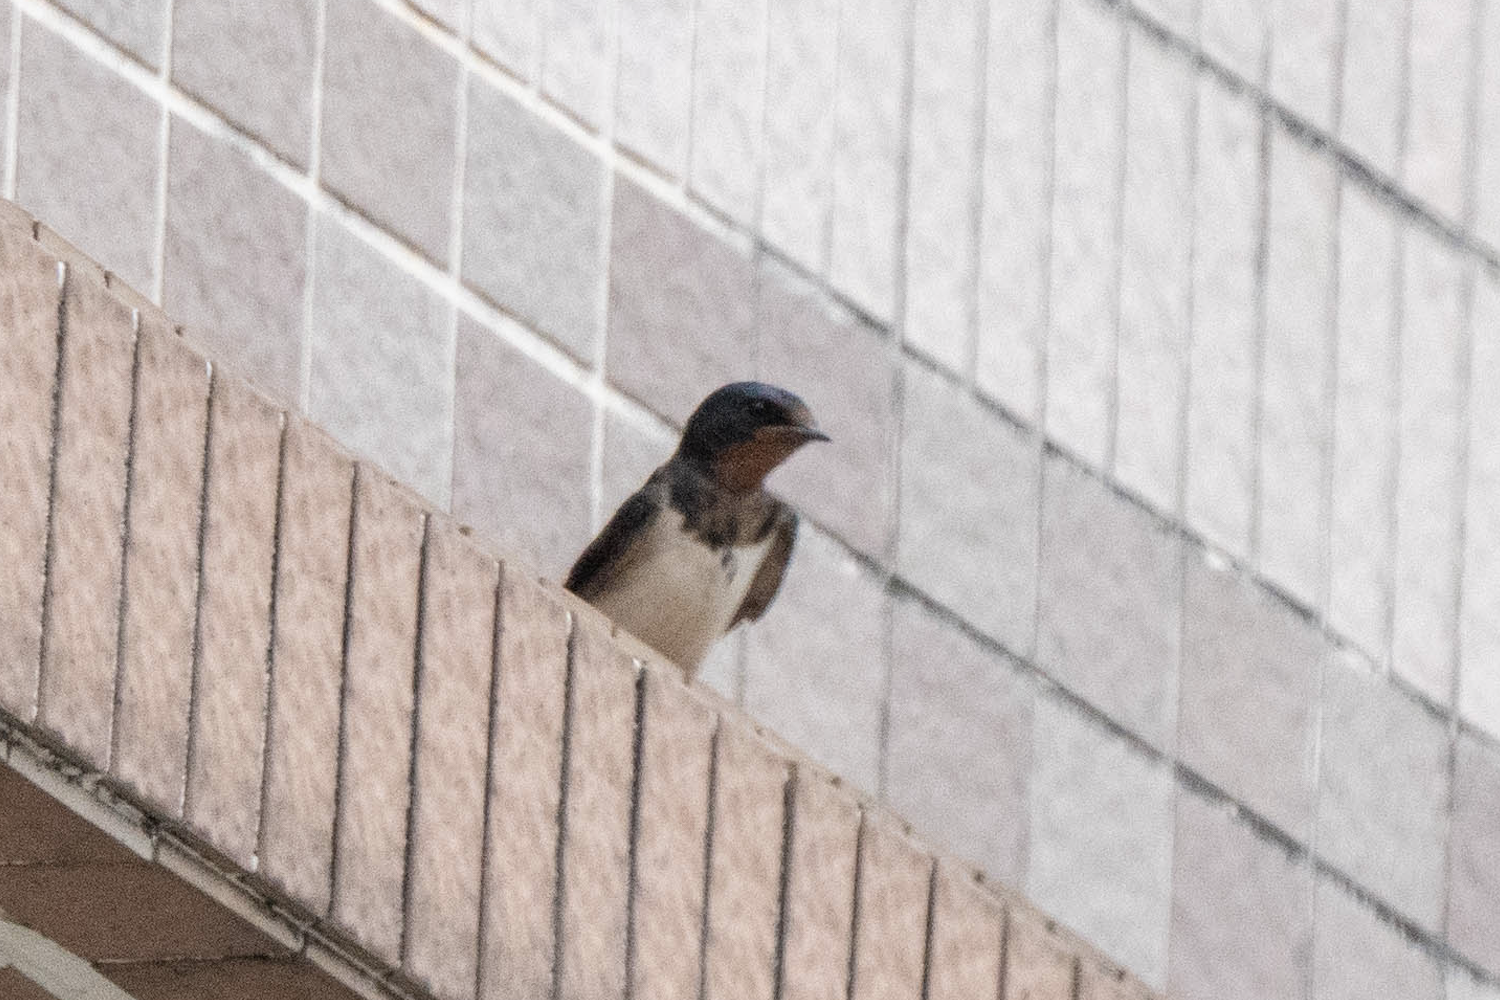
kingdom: Animalia
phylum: Chordata
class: Aves
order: Passeriformes
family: Hirundinidae
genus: Hirundo
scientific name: Hirundo rustica
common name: Barn swallow
